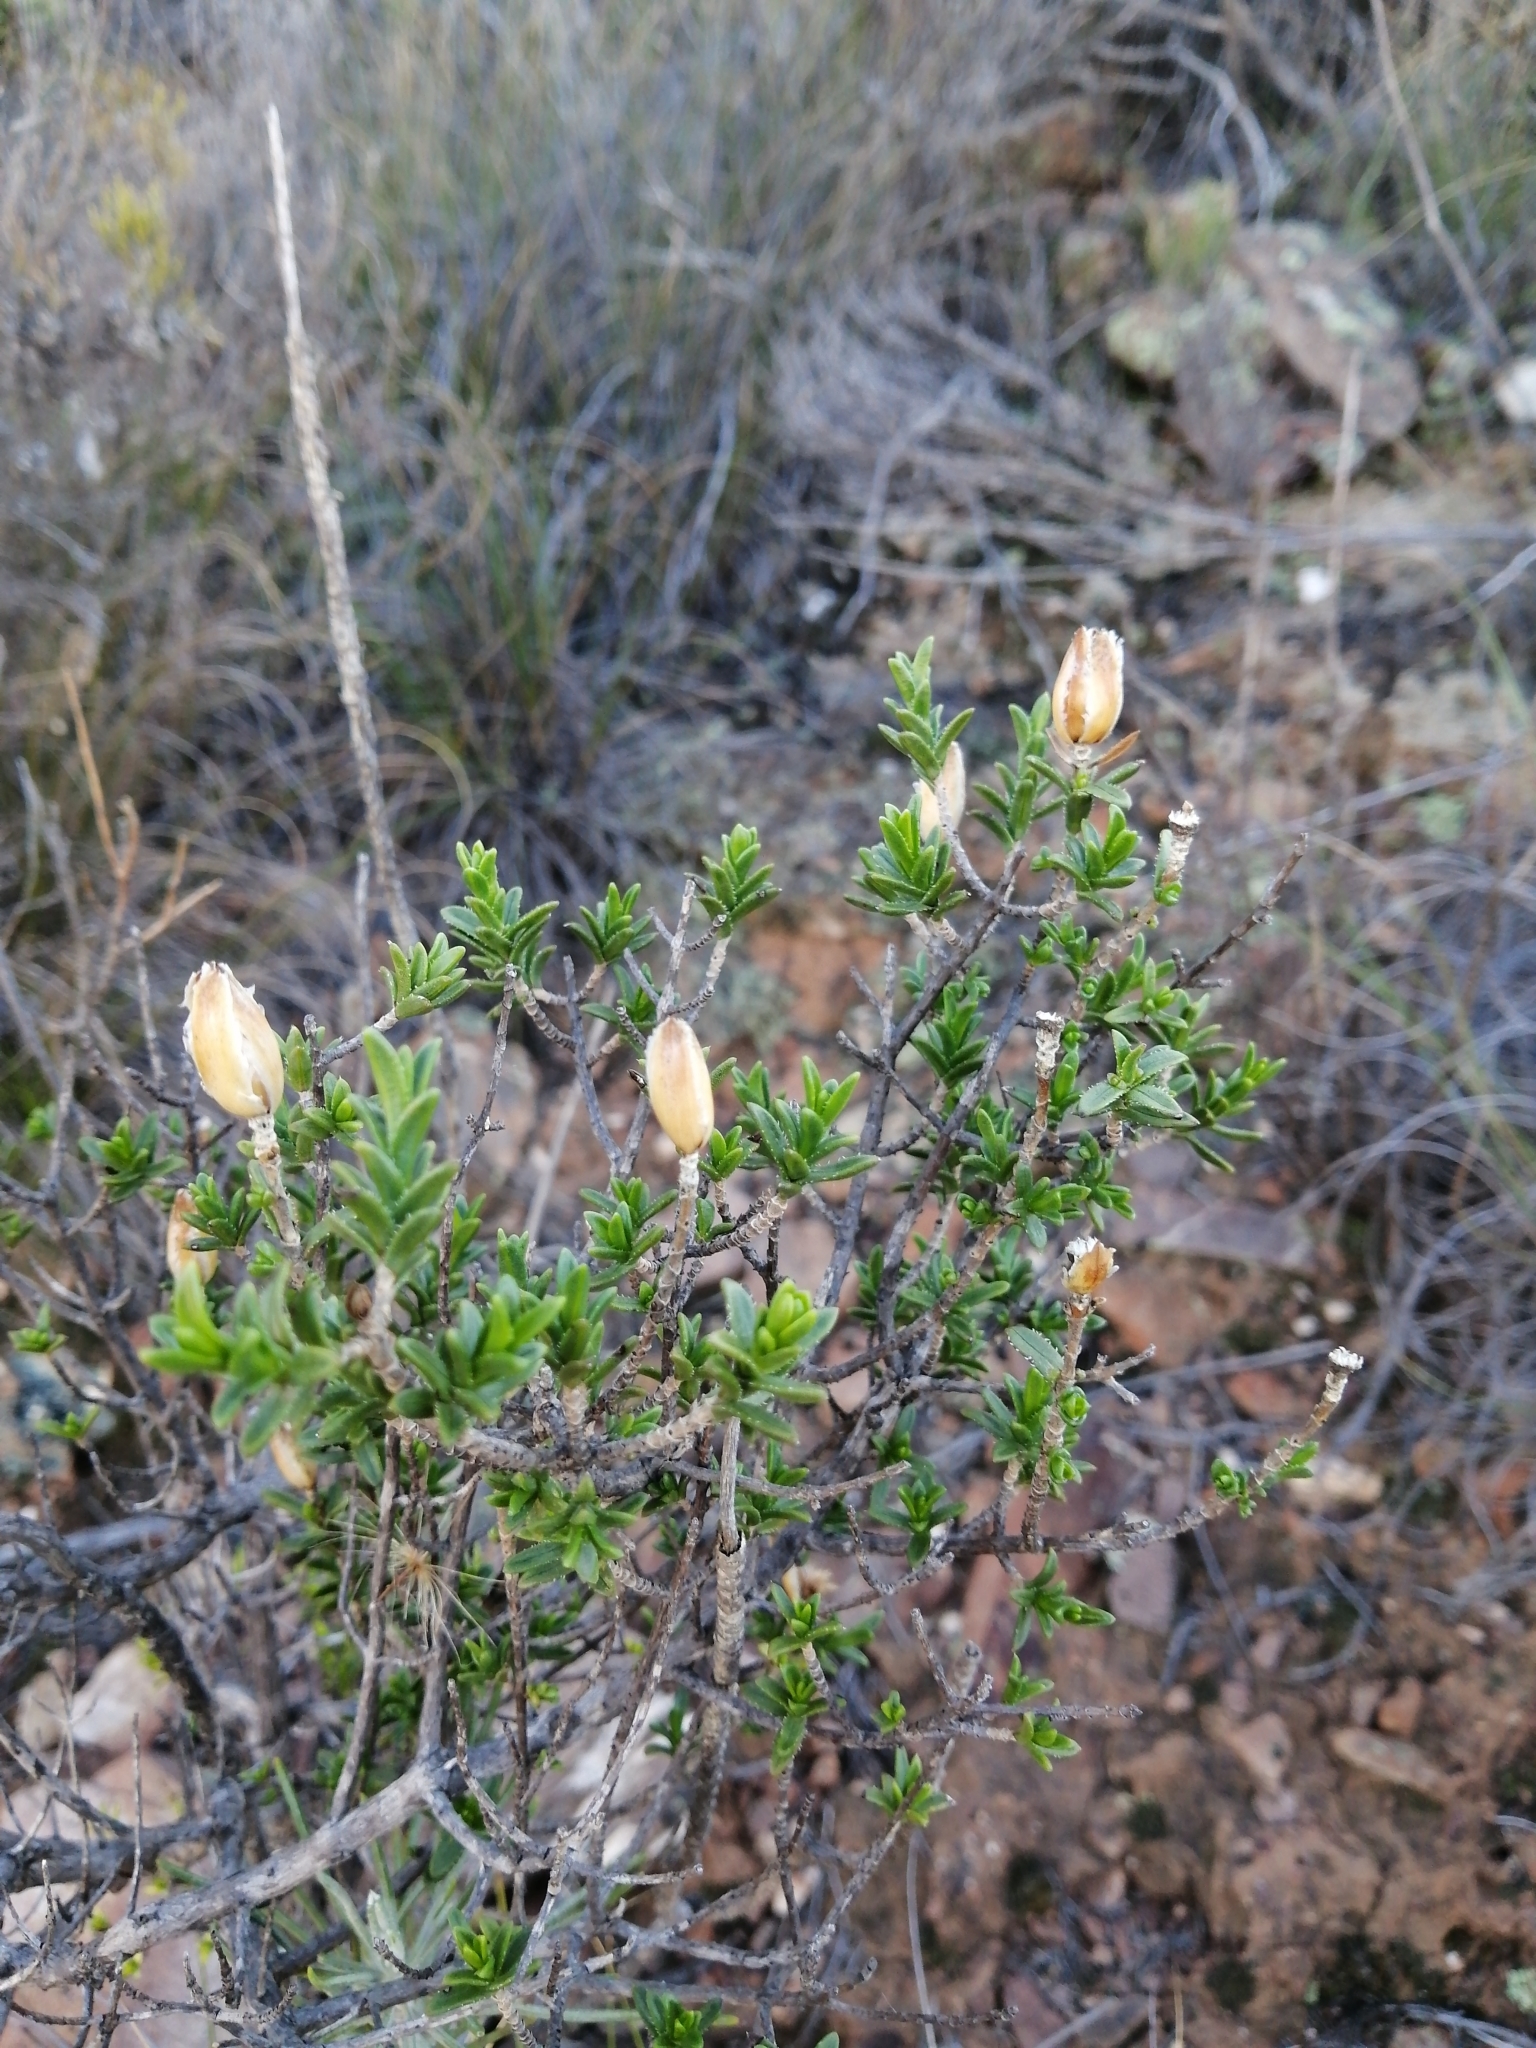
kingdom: Plantae
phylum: Tracheophyta
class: Magnoliopsida
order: Asterales
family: Asteraceae
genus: Pteronia
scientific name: Pteronia elongata
